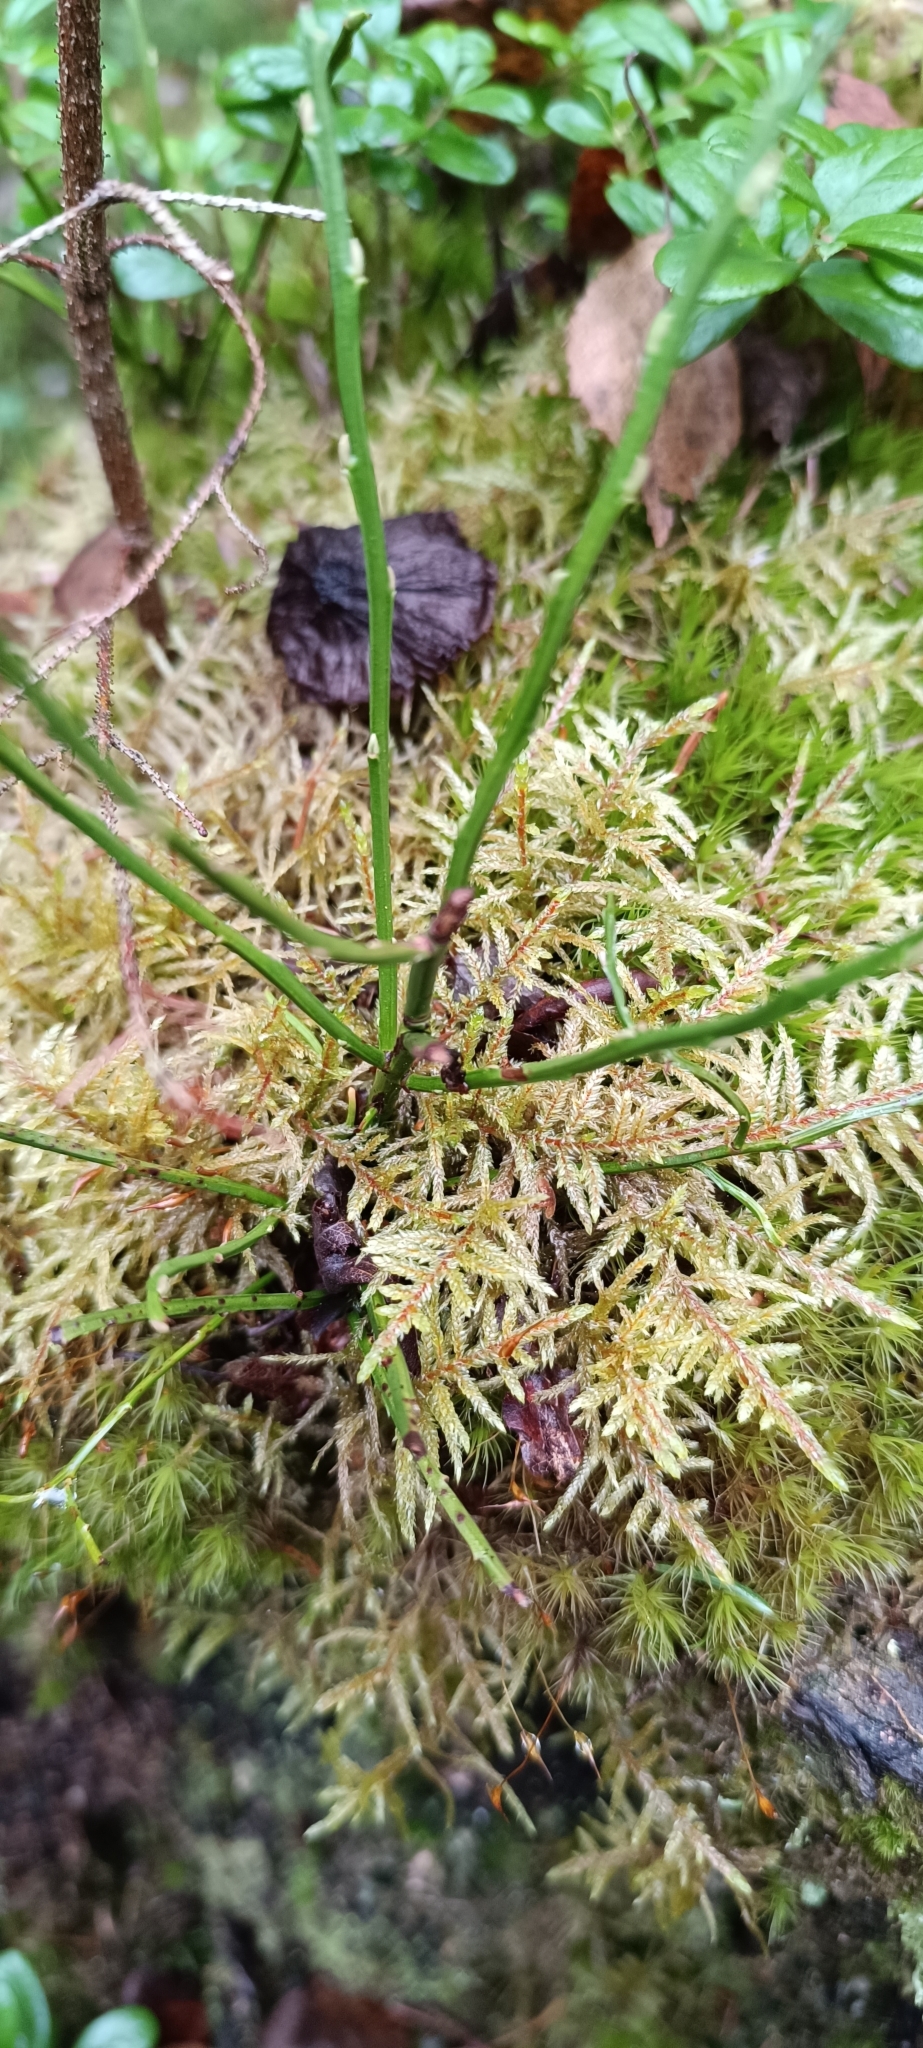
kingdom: Plantae
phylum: Bryophyta
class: Bryopsida
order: Hypnales
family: Hylocomiaceae
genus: Pleurozium
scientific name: Pleurozium schreberi
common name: Red-stemmed feather moss
